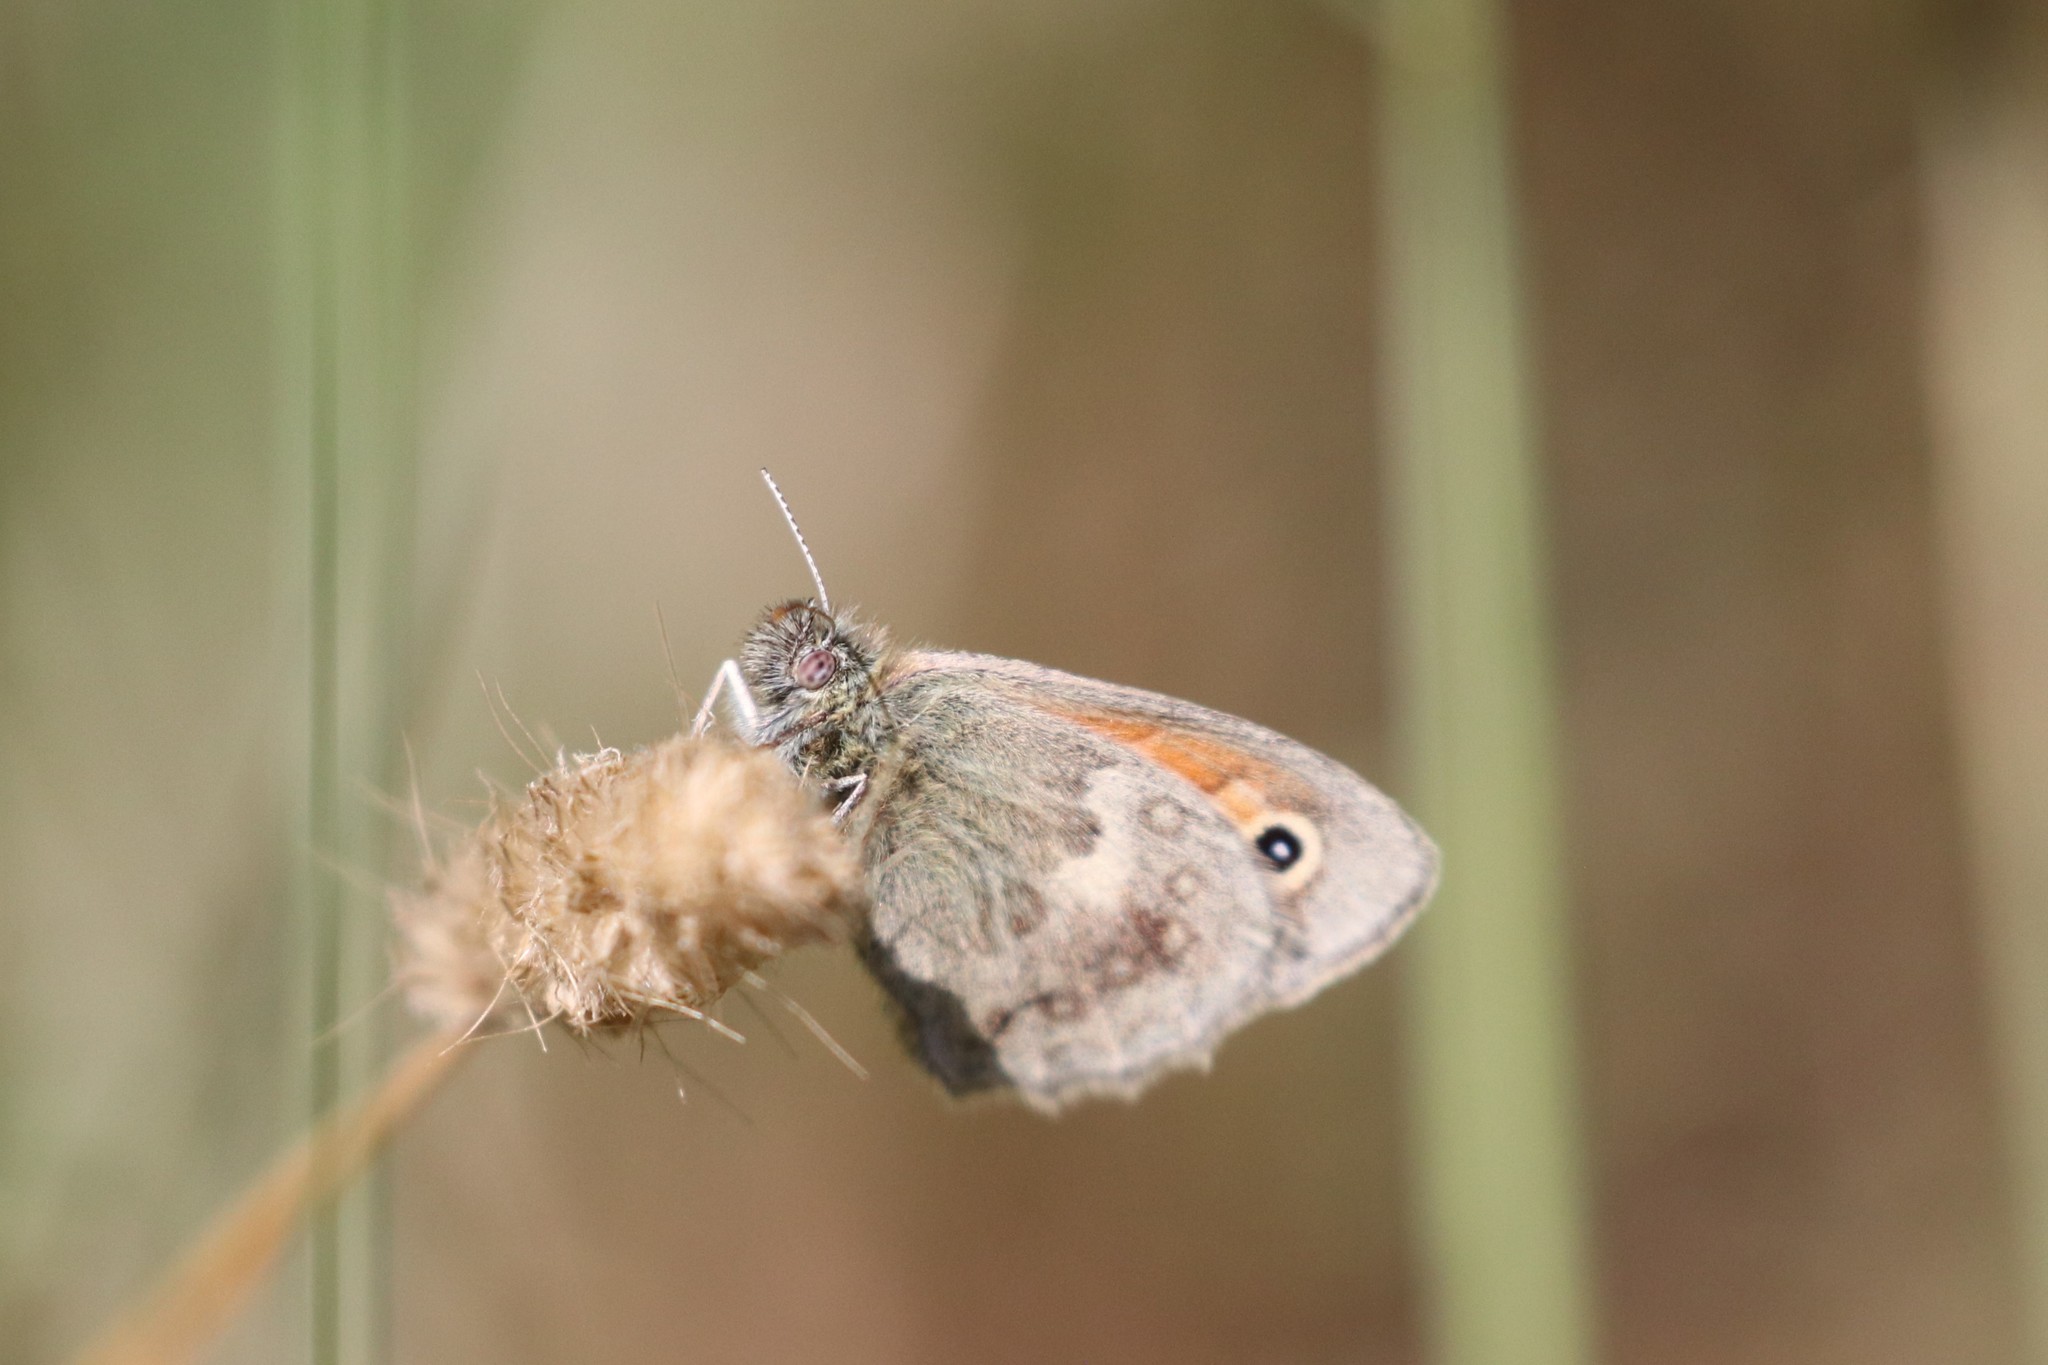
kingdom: Animalia
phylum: Arthropoda
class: Insecta
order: Lepidoptera
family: Nymphalidae
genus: Coenonympha
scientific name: Coenonympha pamphilus
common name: Small heath
